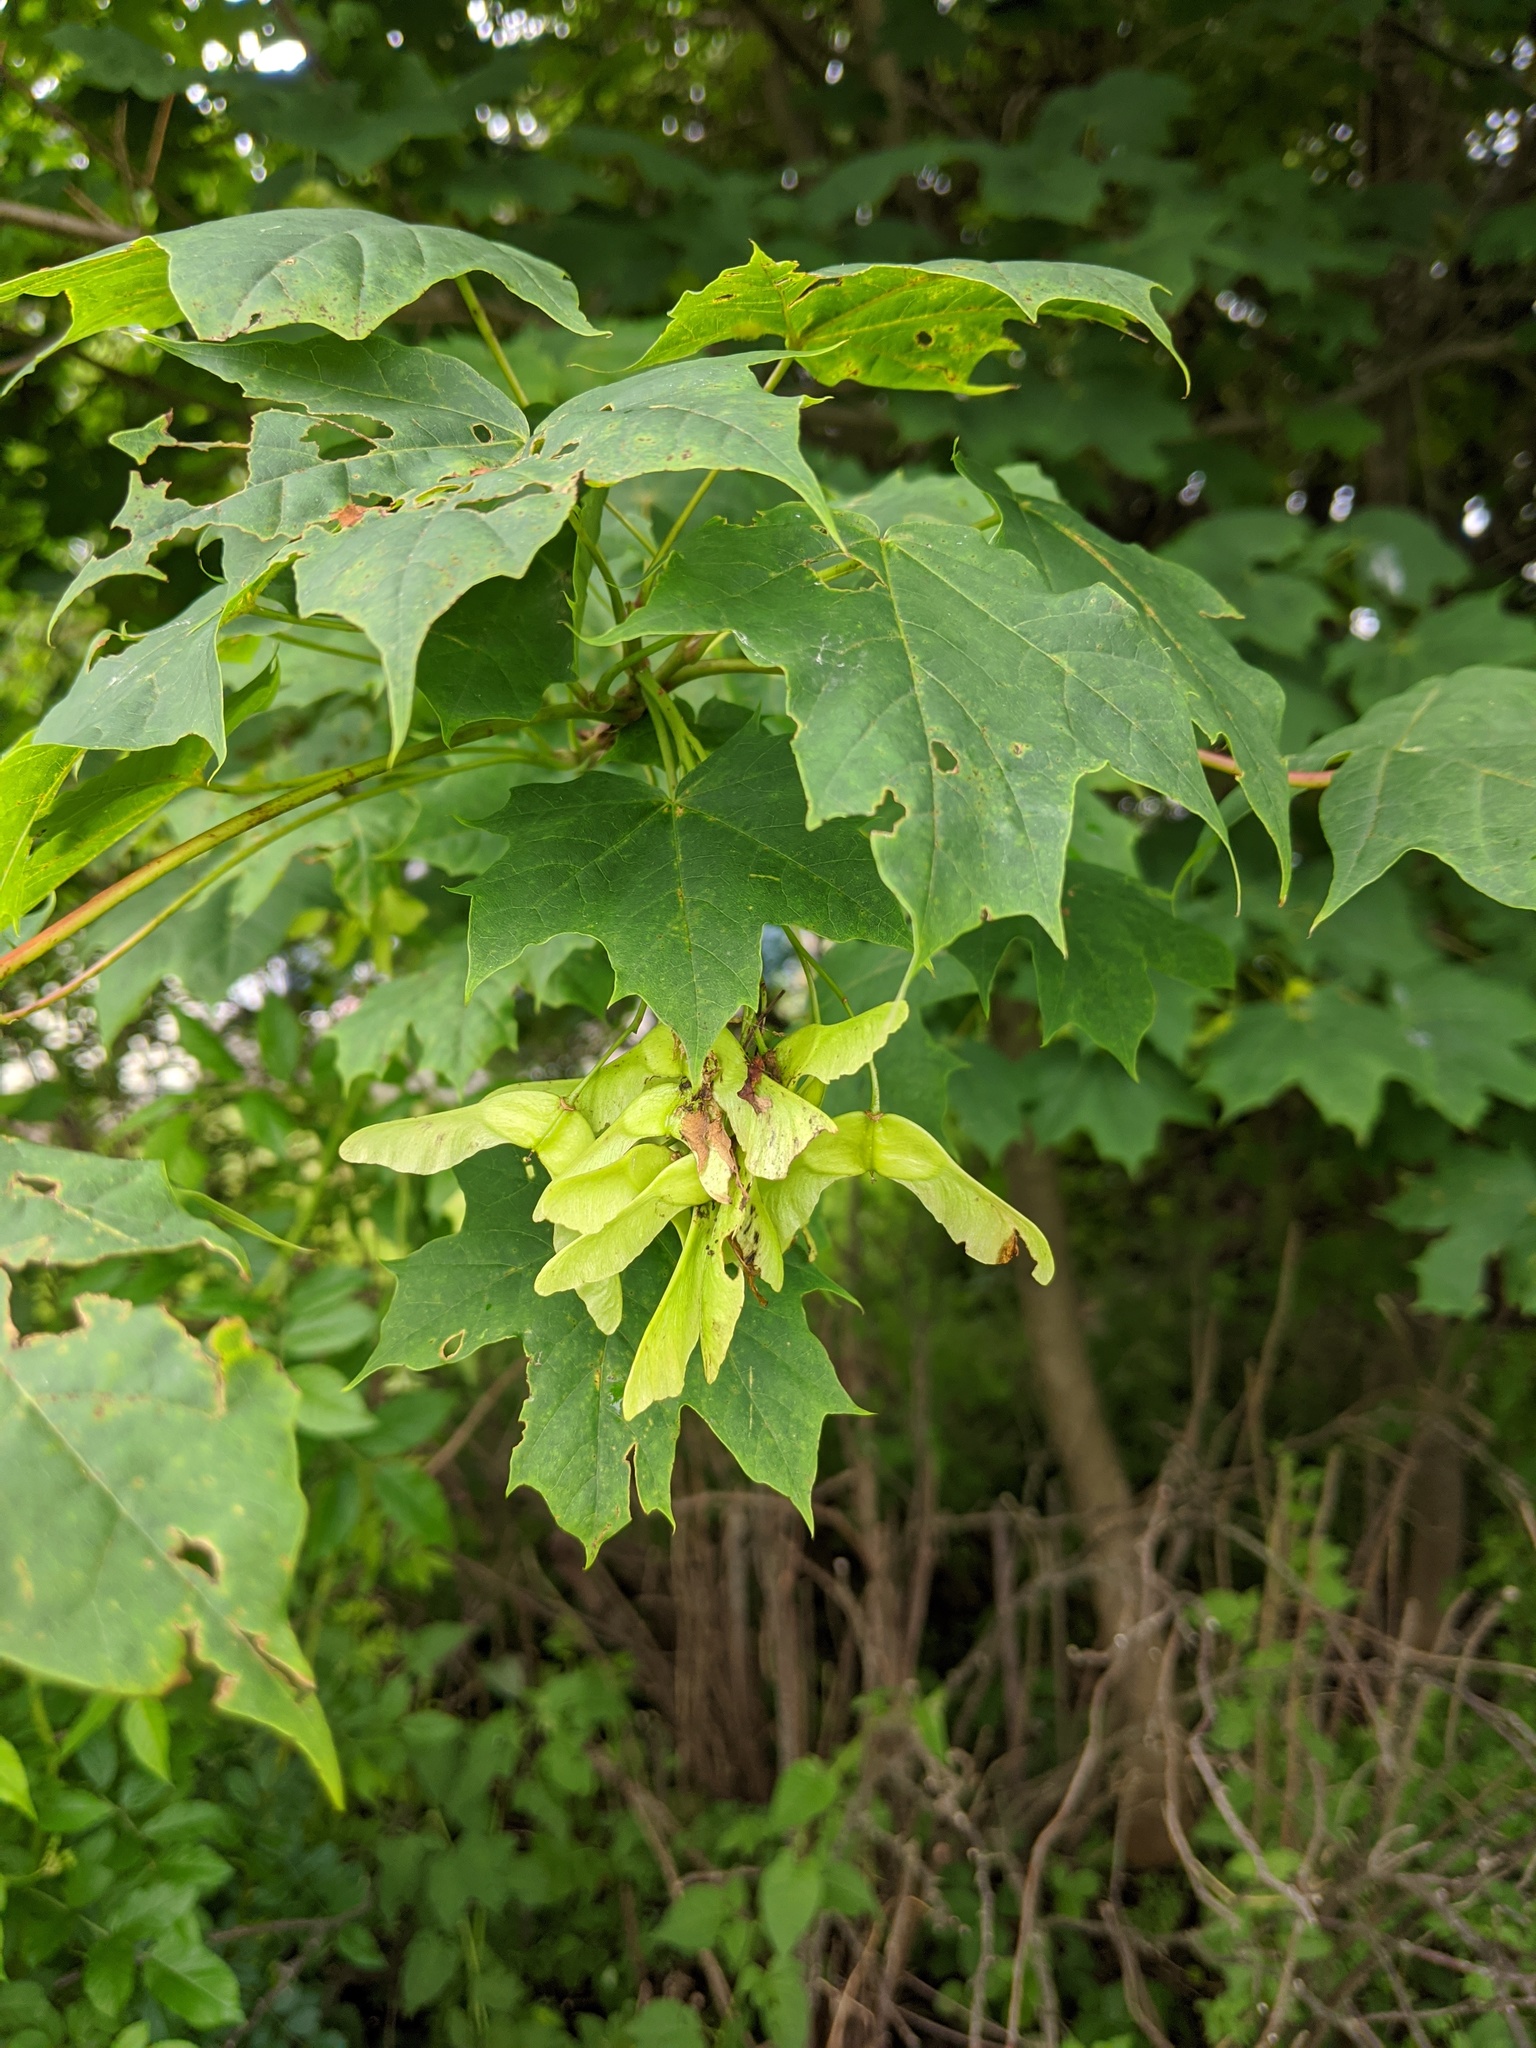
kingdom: Plantae
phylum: Tracheophyta
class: Magnoliopsida
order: Sapindales
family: Sapindaceae
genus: Acer
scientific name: Acer platanoides
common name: Norway maple
